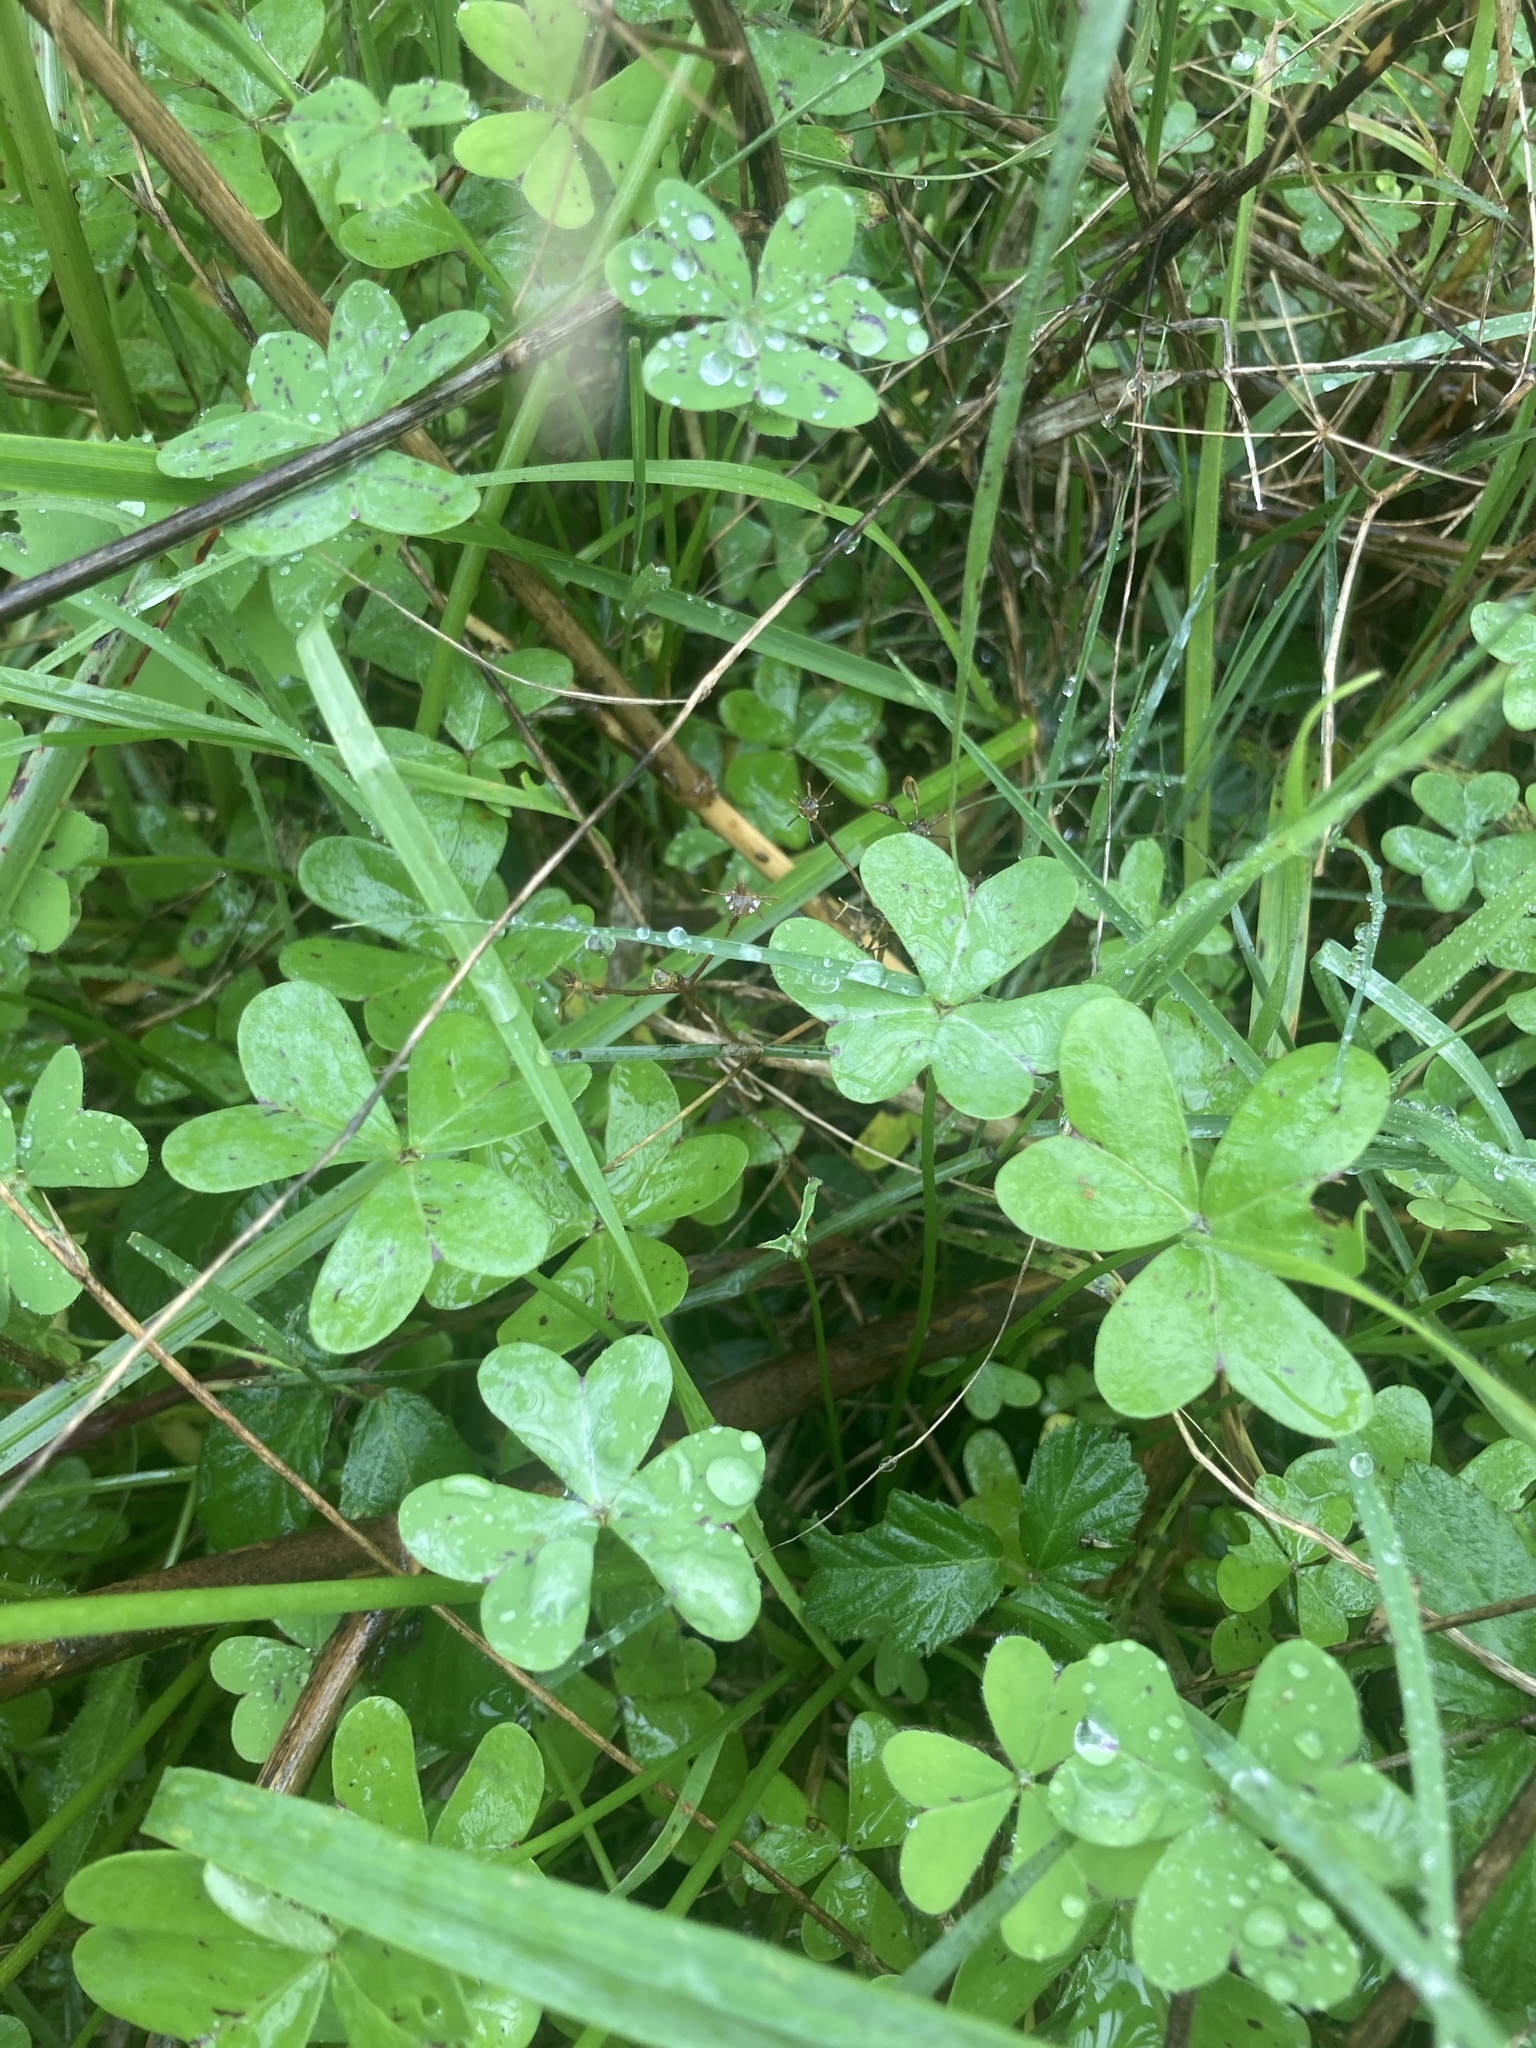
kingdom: Plantae
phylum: Tracheophyta
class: Magnoliopsida
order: Oxalidales
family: Oxalidaceae
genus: Oxalis
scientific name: Oxalis pes-caprae
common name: Bermuda-buttercup
